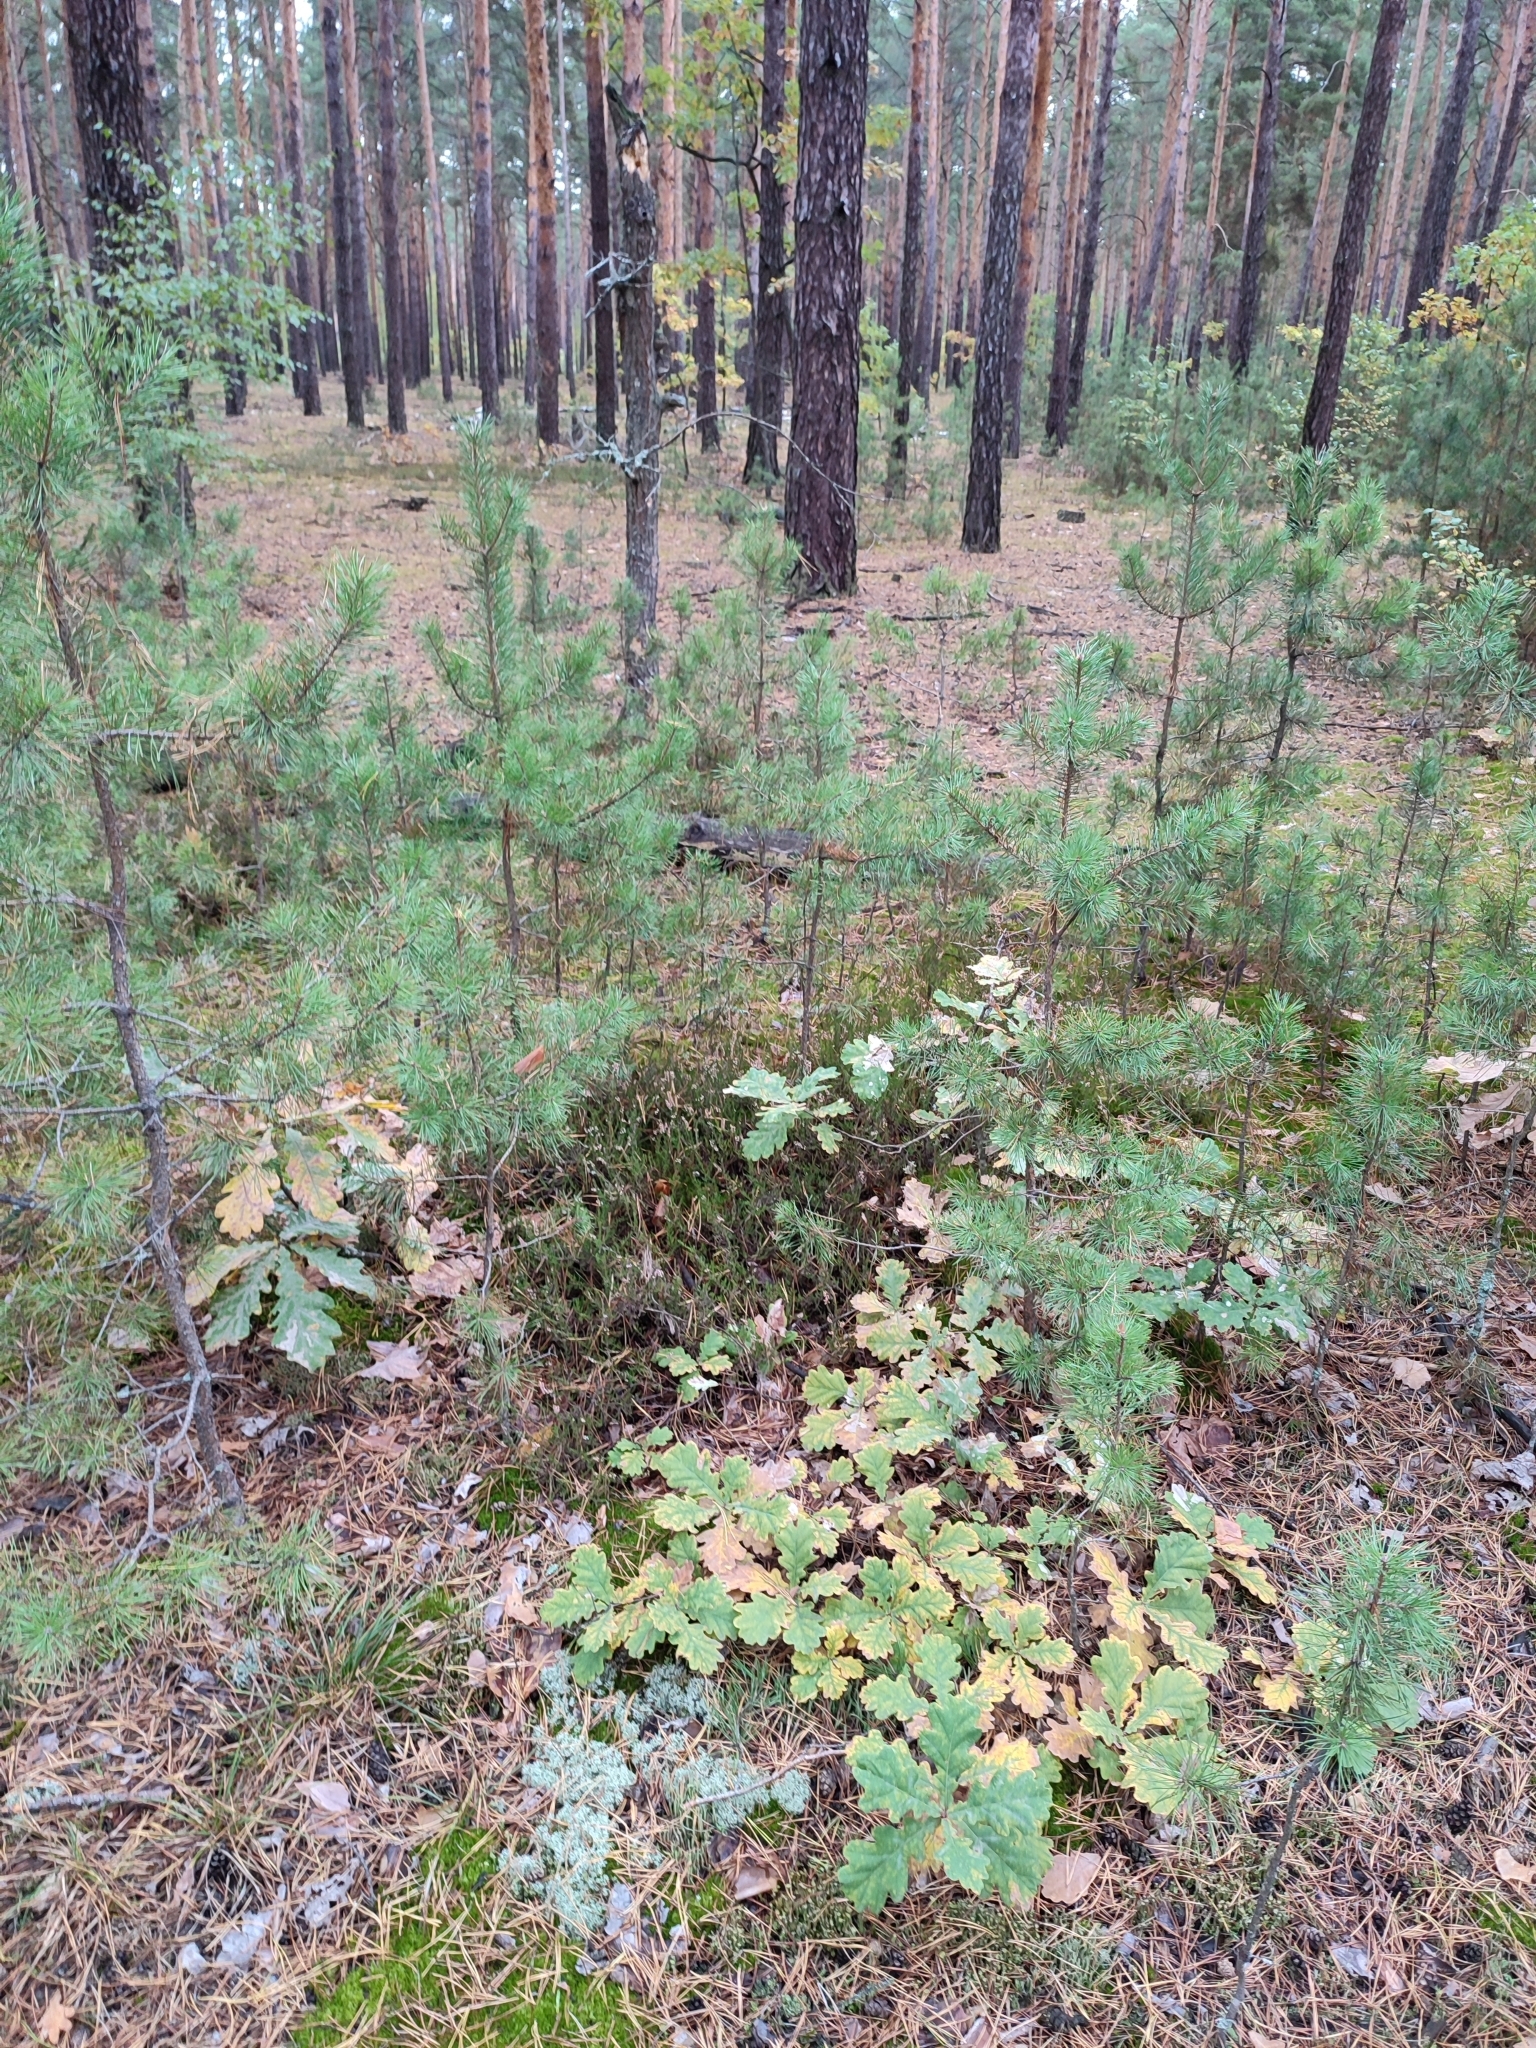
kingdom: Plantae
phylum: Tracheophyta
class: Magnoliopsida
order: Fagales
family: Fagaceae
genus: Quercus
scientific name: Quercus robur
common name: Pedunculate oak
